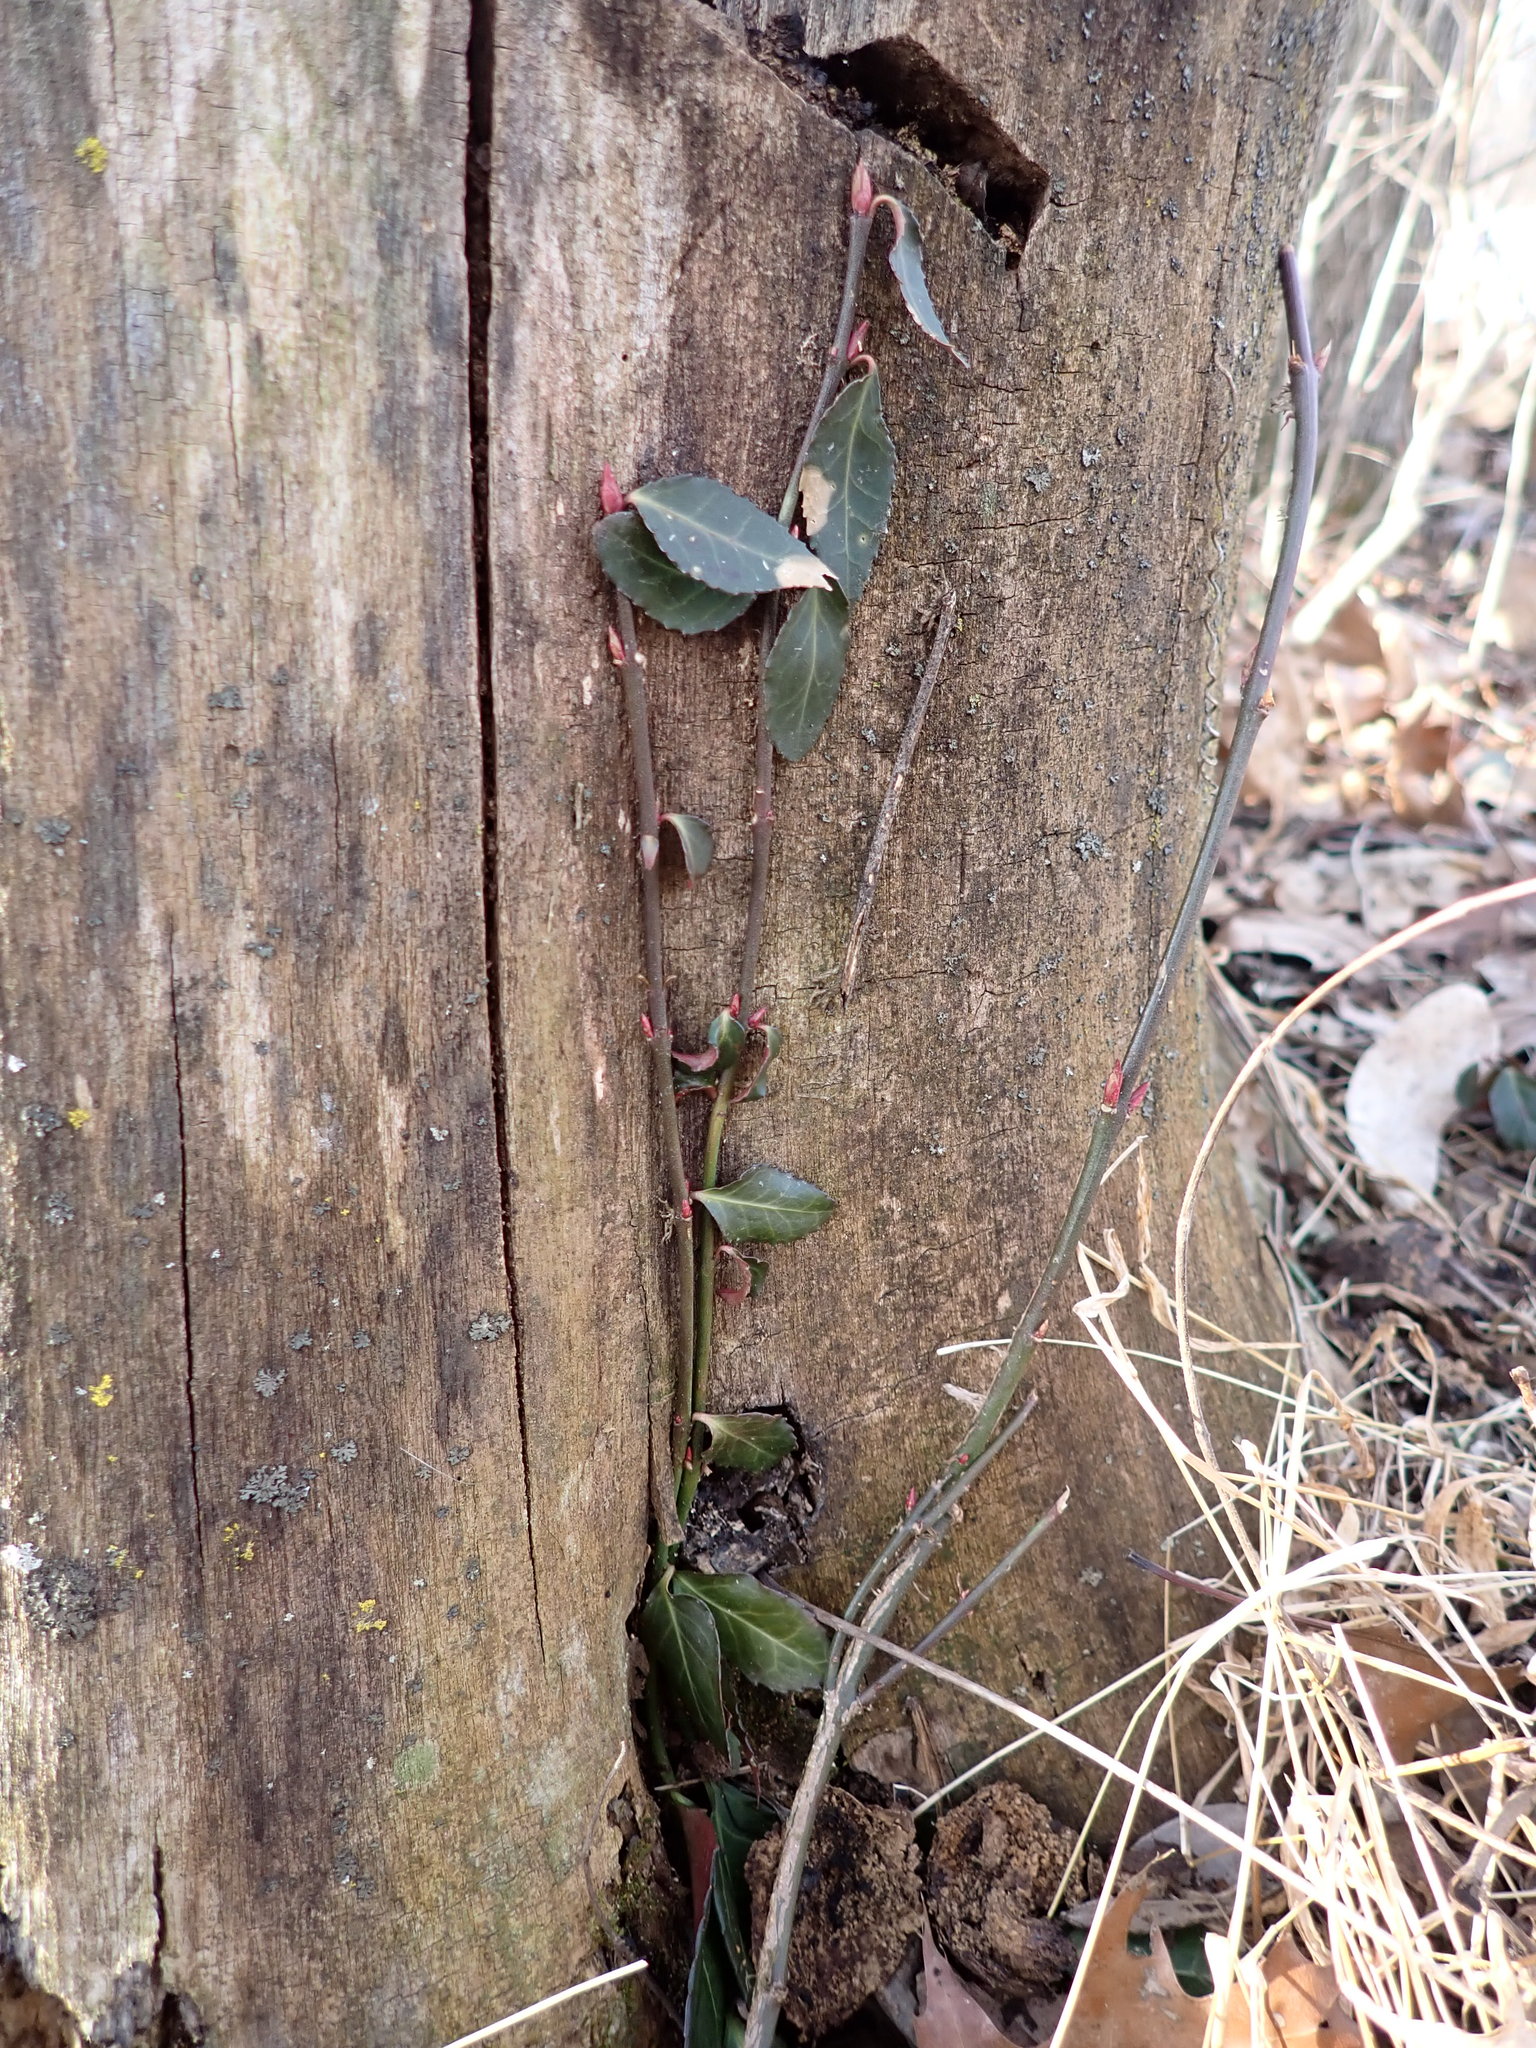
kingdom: Plantae
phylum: Tracheophyta
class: Magnoliopsida
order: Celastrales
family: Celastraceae
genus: Euonymus
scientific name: Euonymus fortunei
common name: Climbing euonymus
